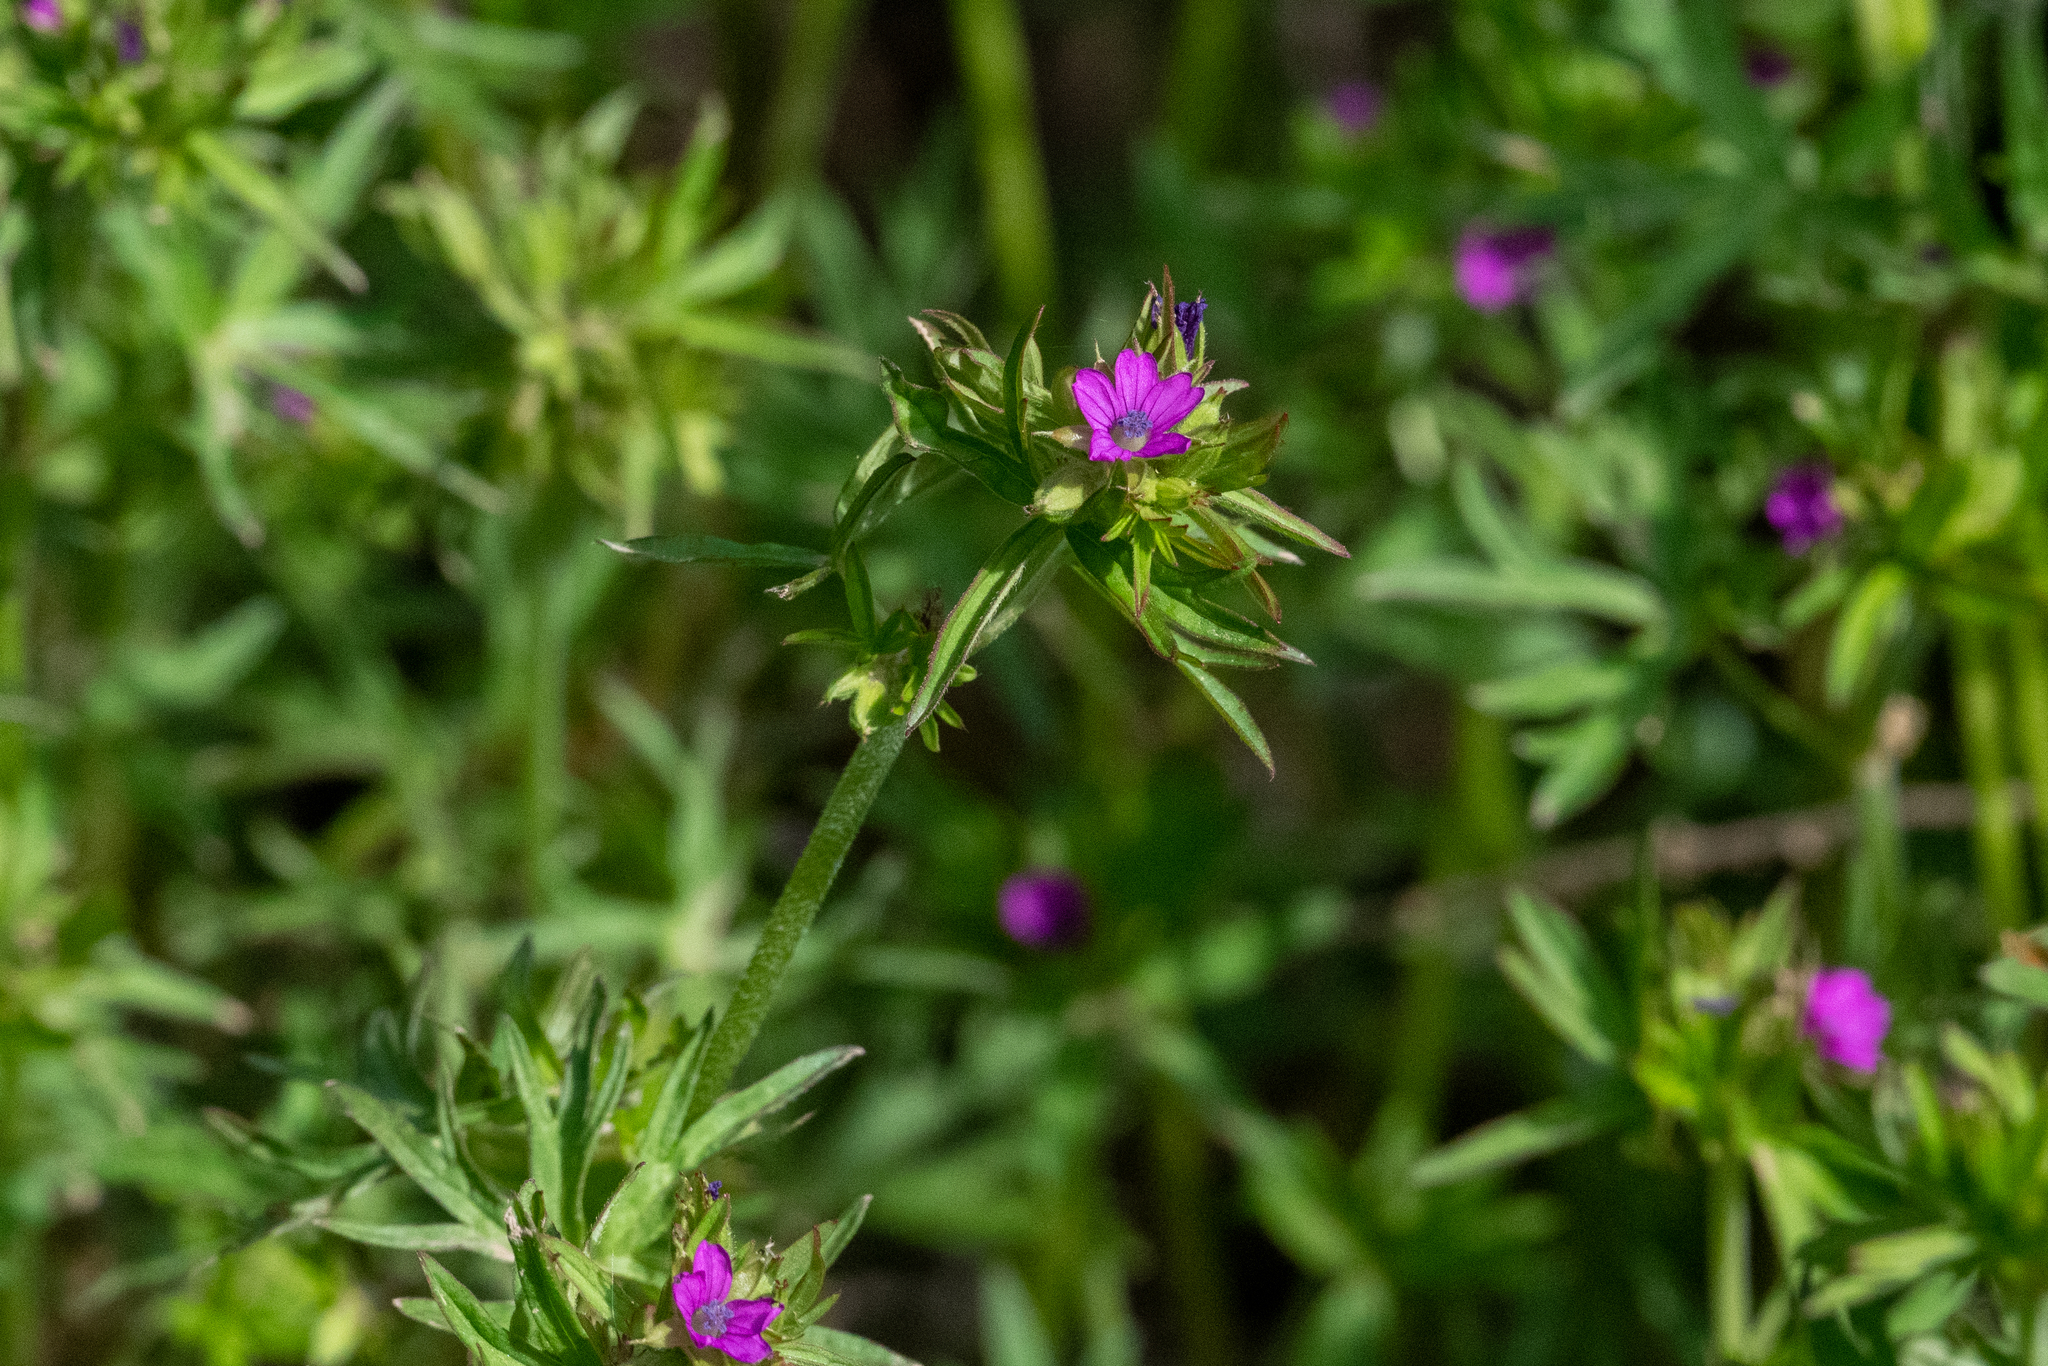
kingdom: Plantae
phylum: Tracheophyta
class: Magnoliopsida
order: Geraniales
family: Geraniaceae
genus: Geranium
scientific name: Geranium dissectum
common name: Cut-leaved crane's-bill
